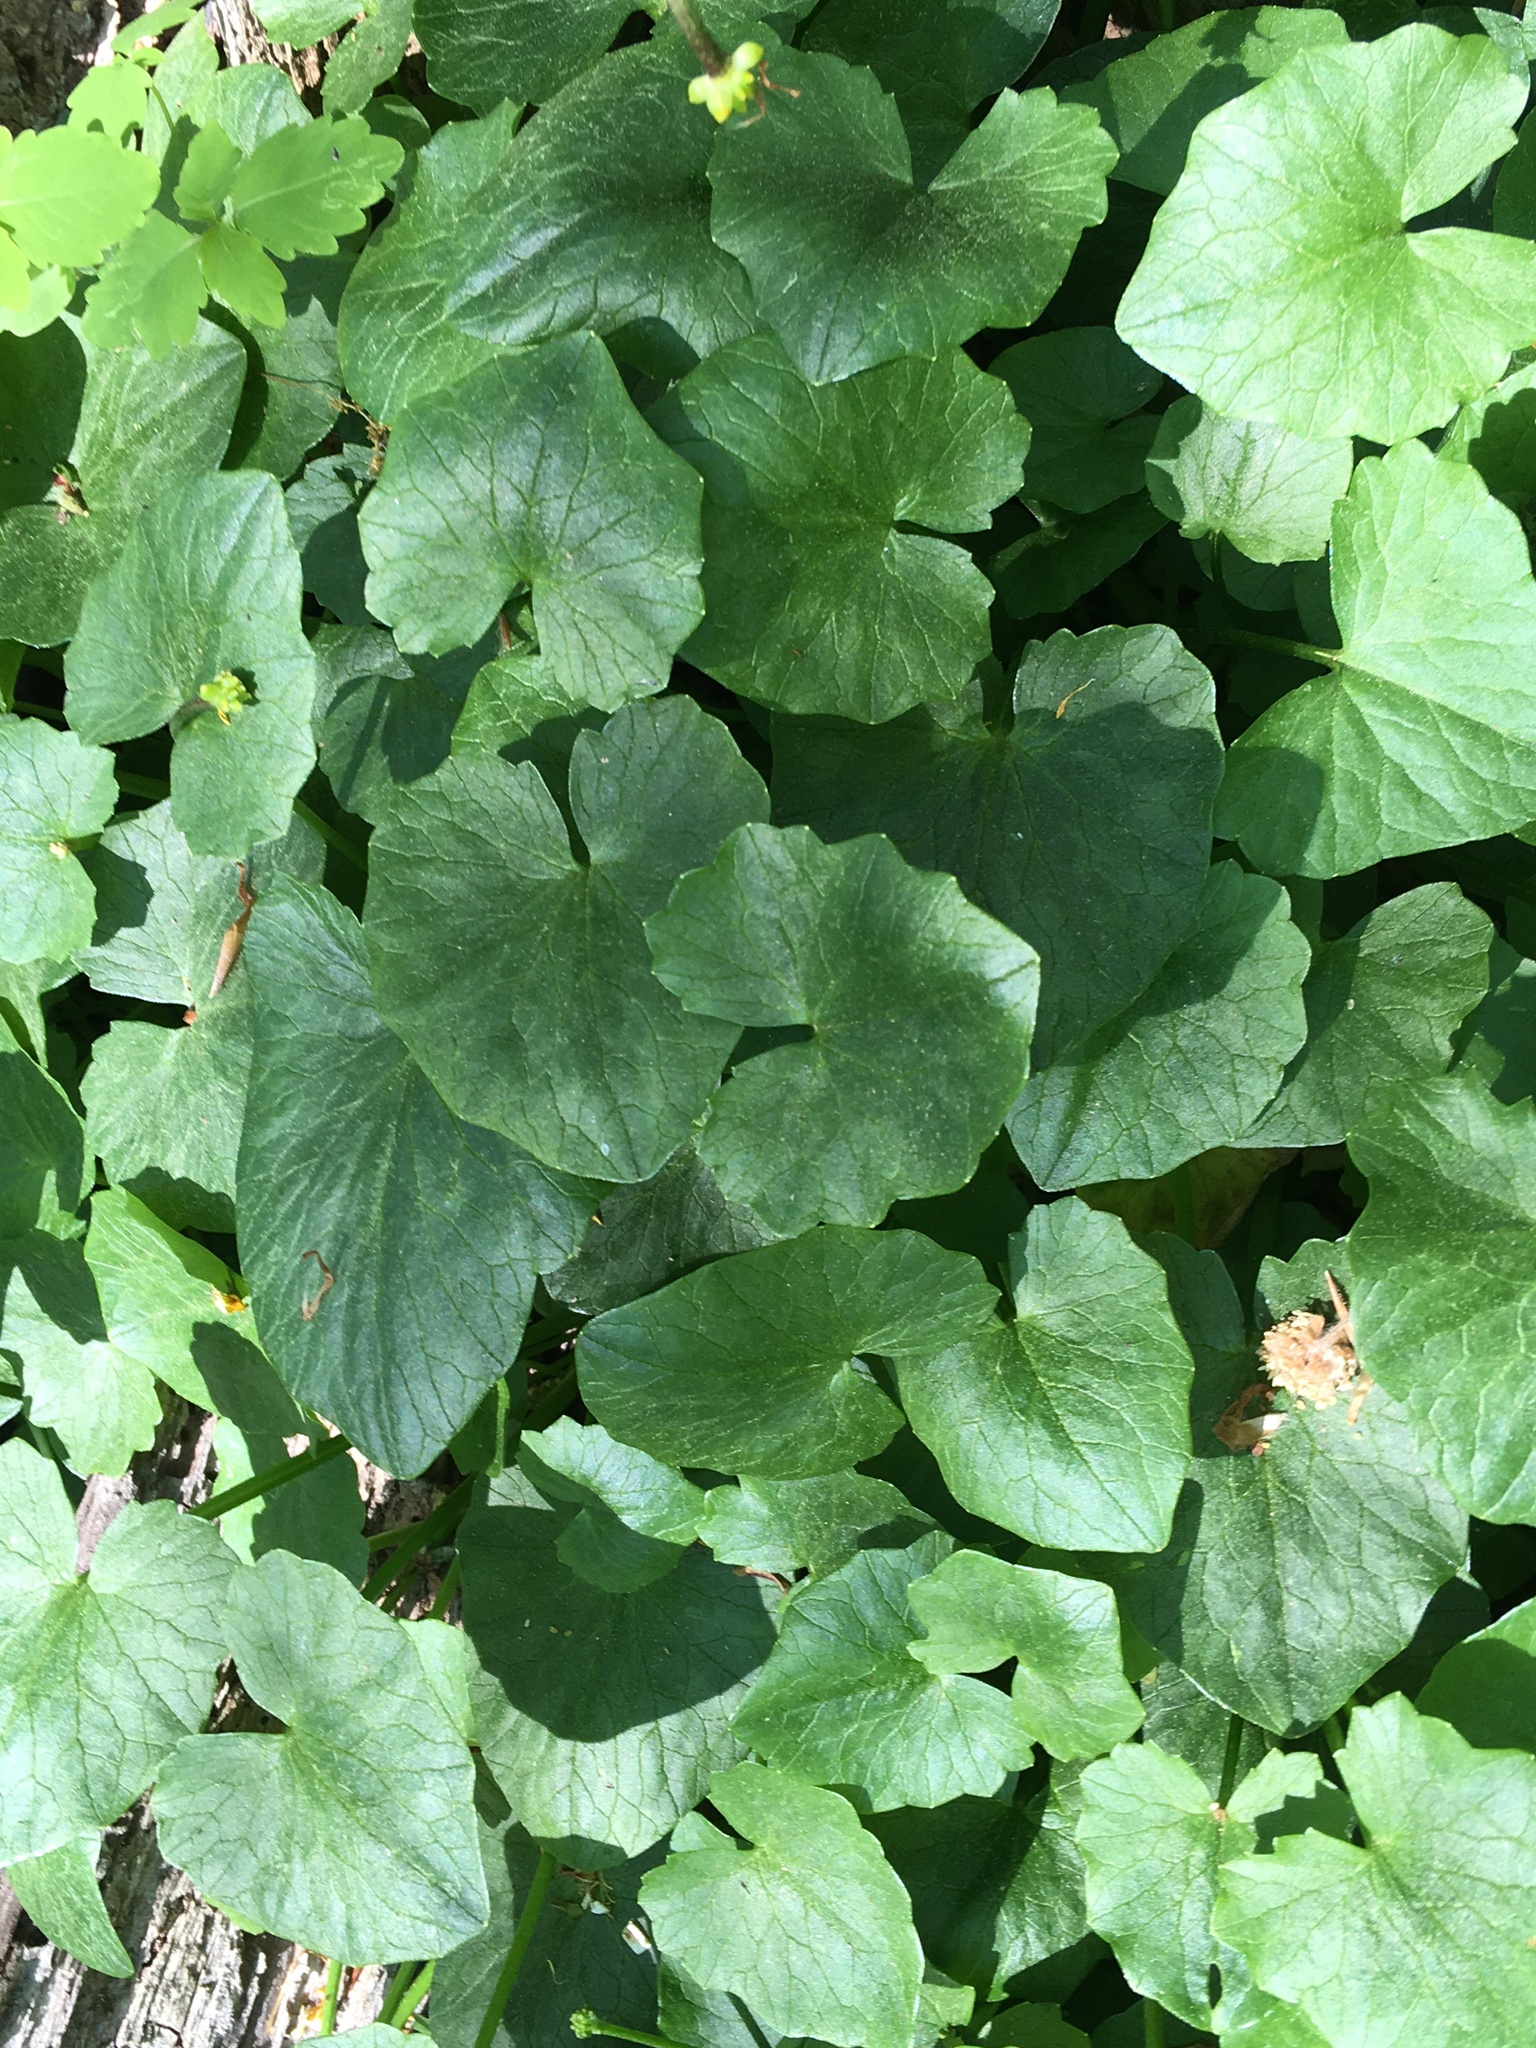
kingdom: Plantae
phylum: Tracheophyta
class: Magnoliopsida
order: Ranunculales
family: Ranunculaceae
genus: Ficaria
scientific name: Ficaria verna
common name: Lesser celandine
